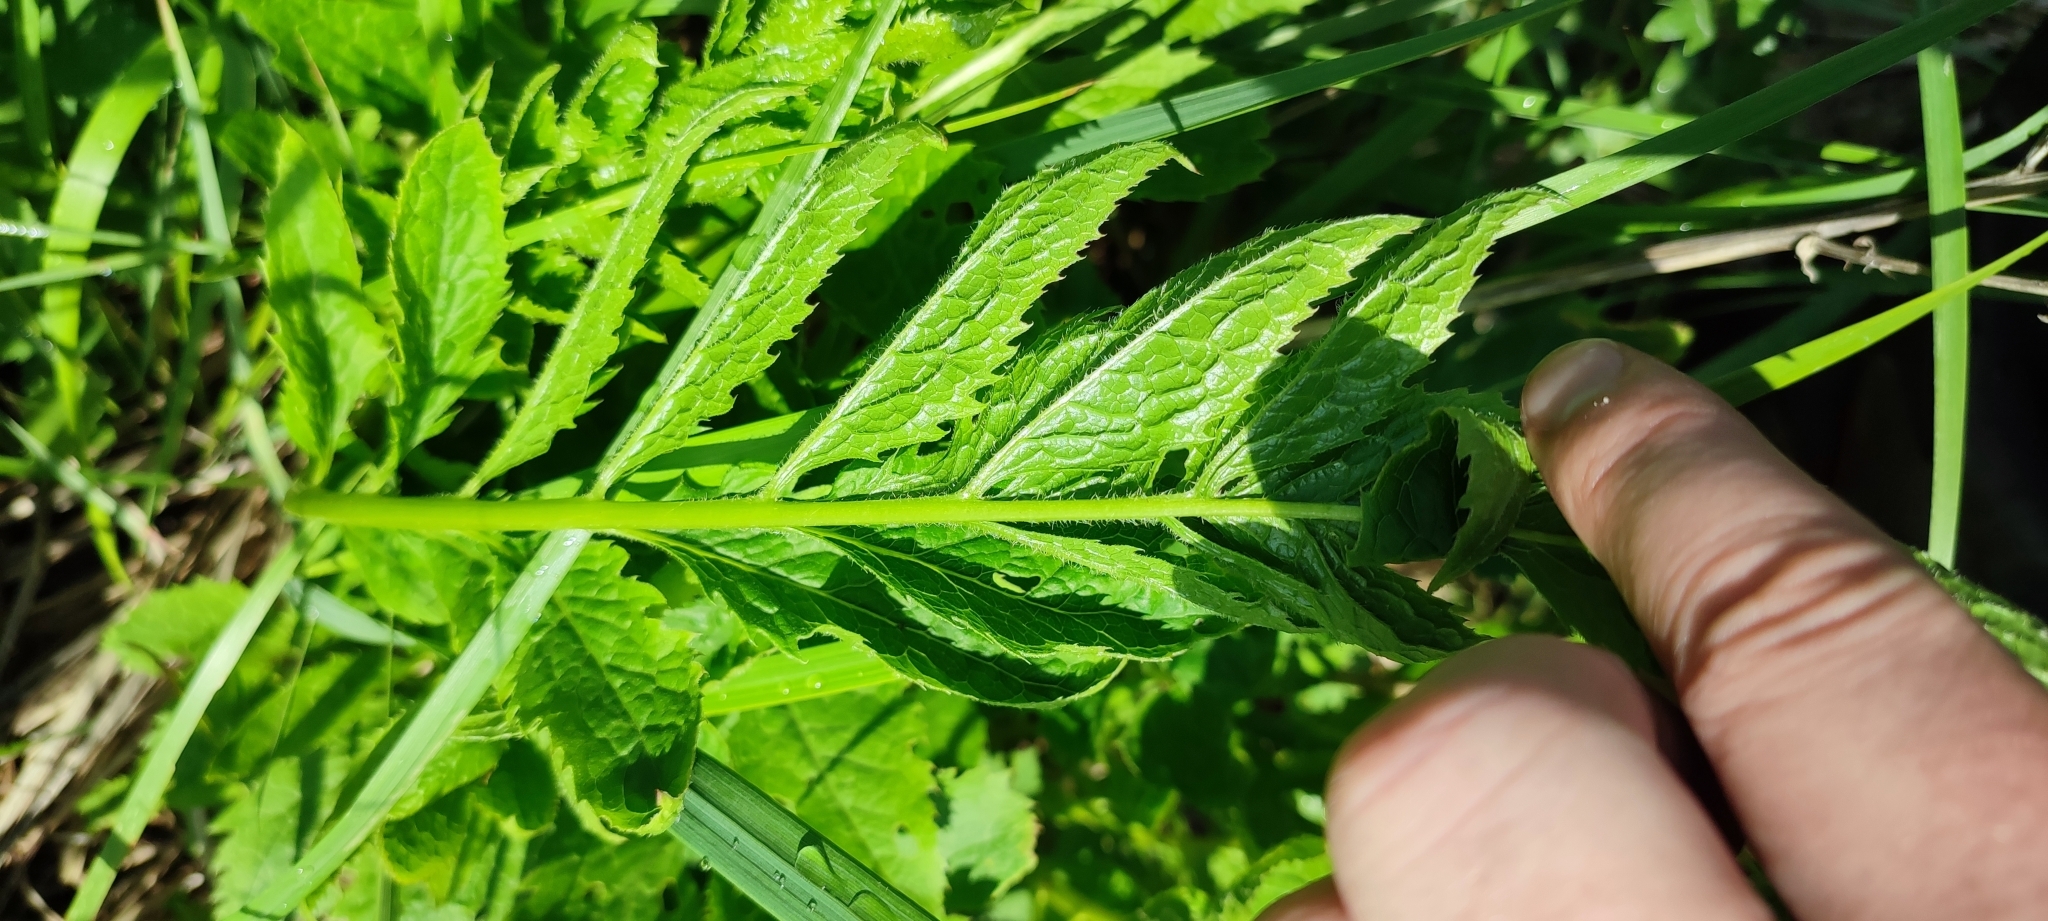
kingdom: Plantae
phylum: Tracheophyta
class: Magnoliopsida
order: Asterales
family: Asteraceae
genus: Serratula
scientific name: Serratula coronata
